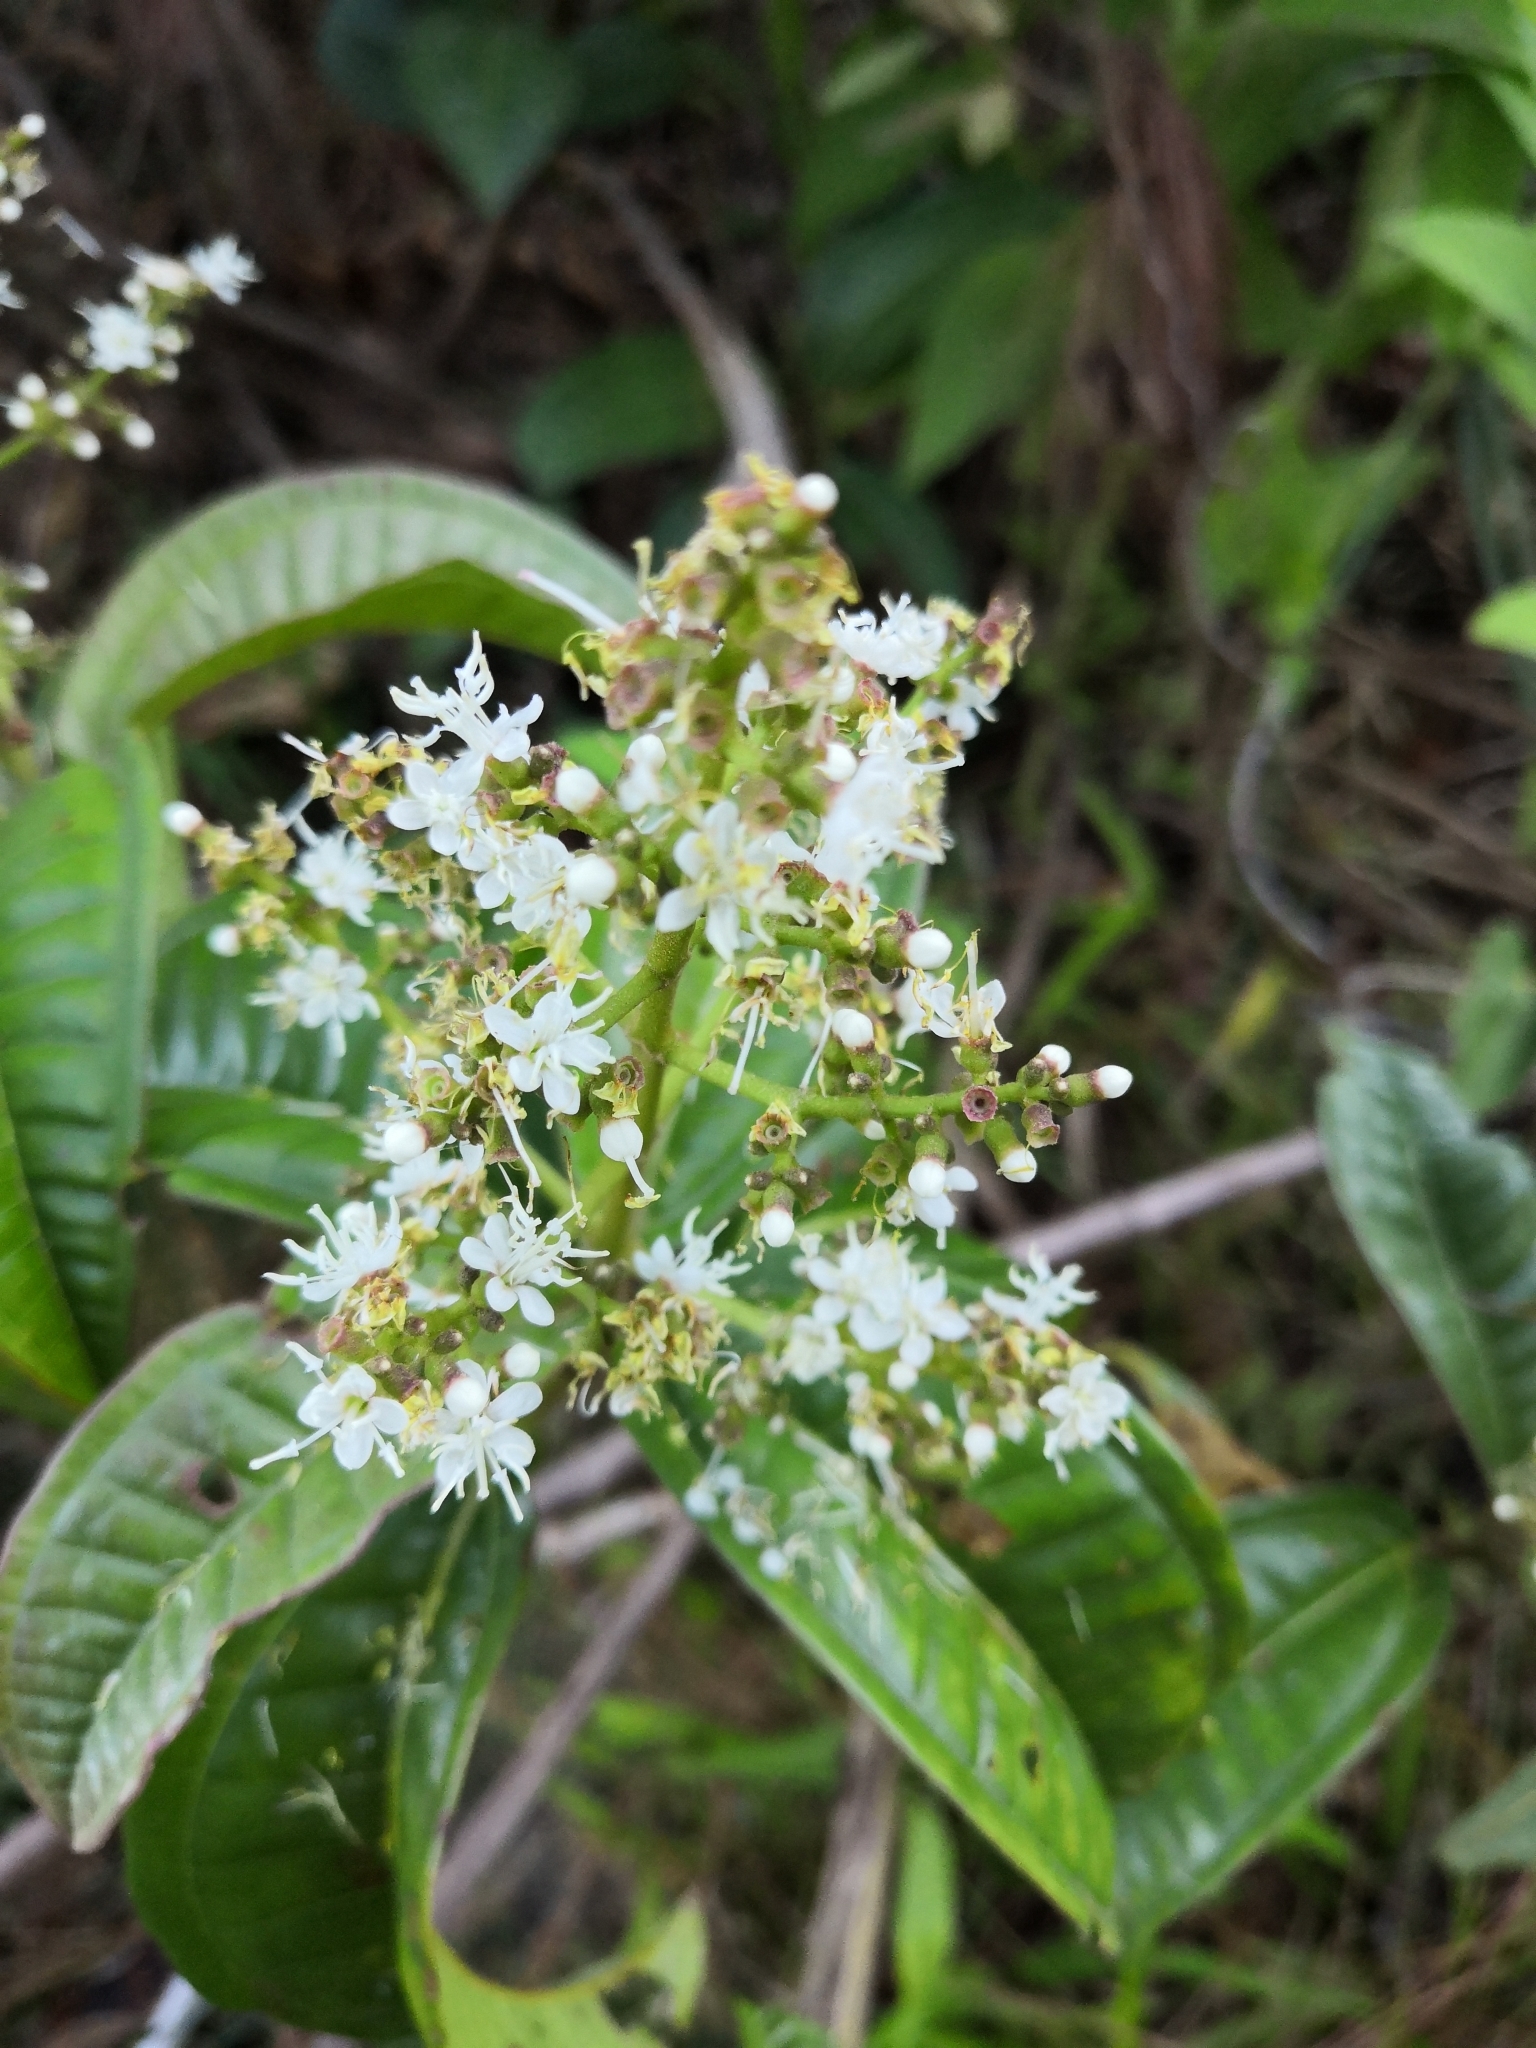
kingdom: Plantae
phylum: Tracheophyta
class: Magnoliopsida
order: Myrtales
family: Melastomataceae
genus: Miconia
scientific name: Miconia chamissois
